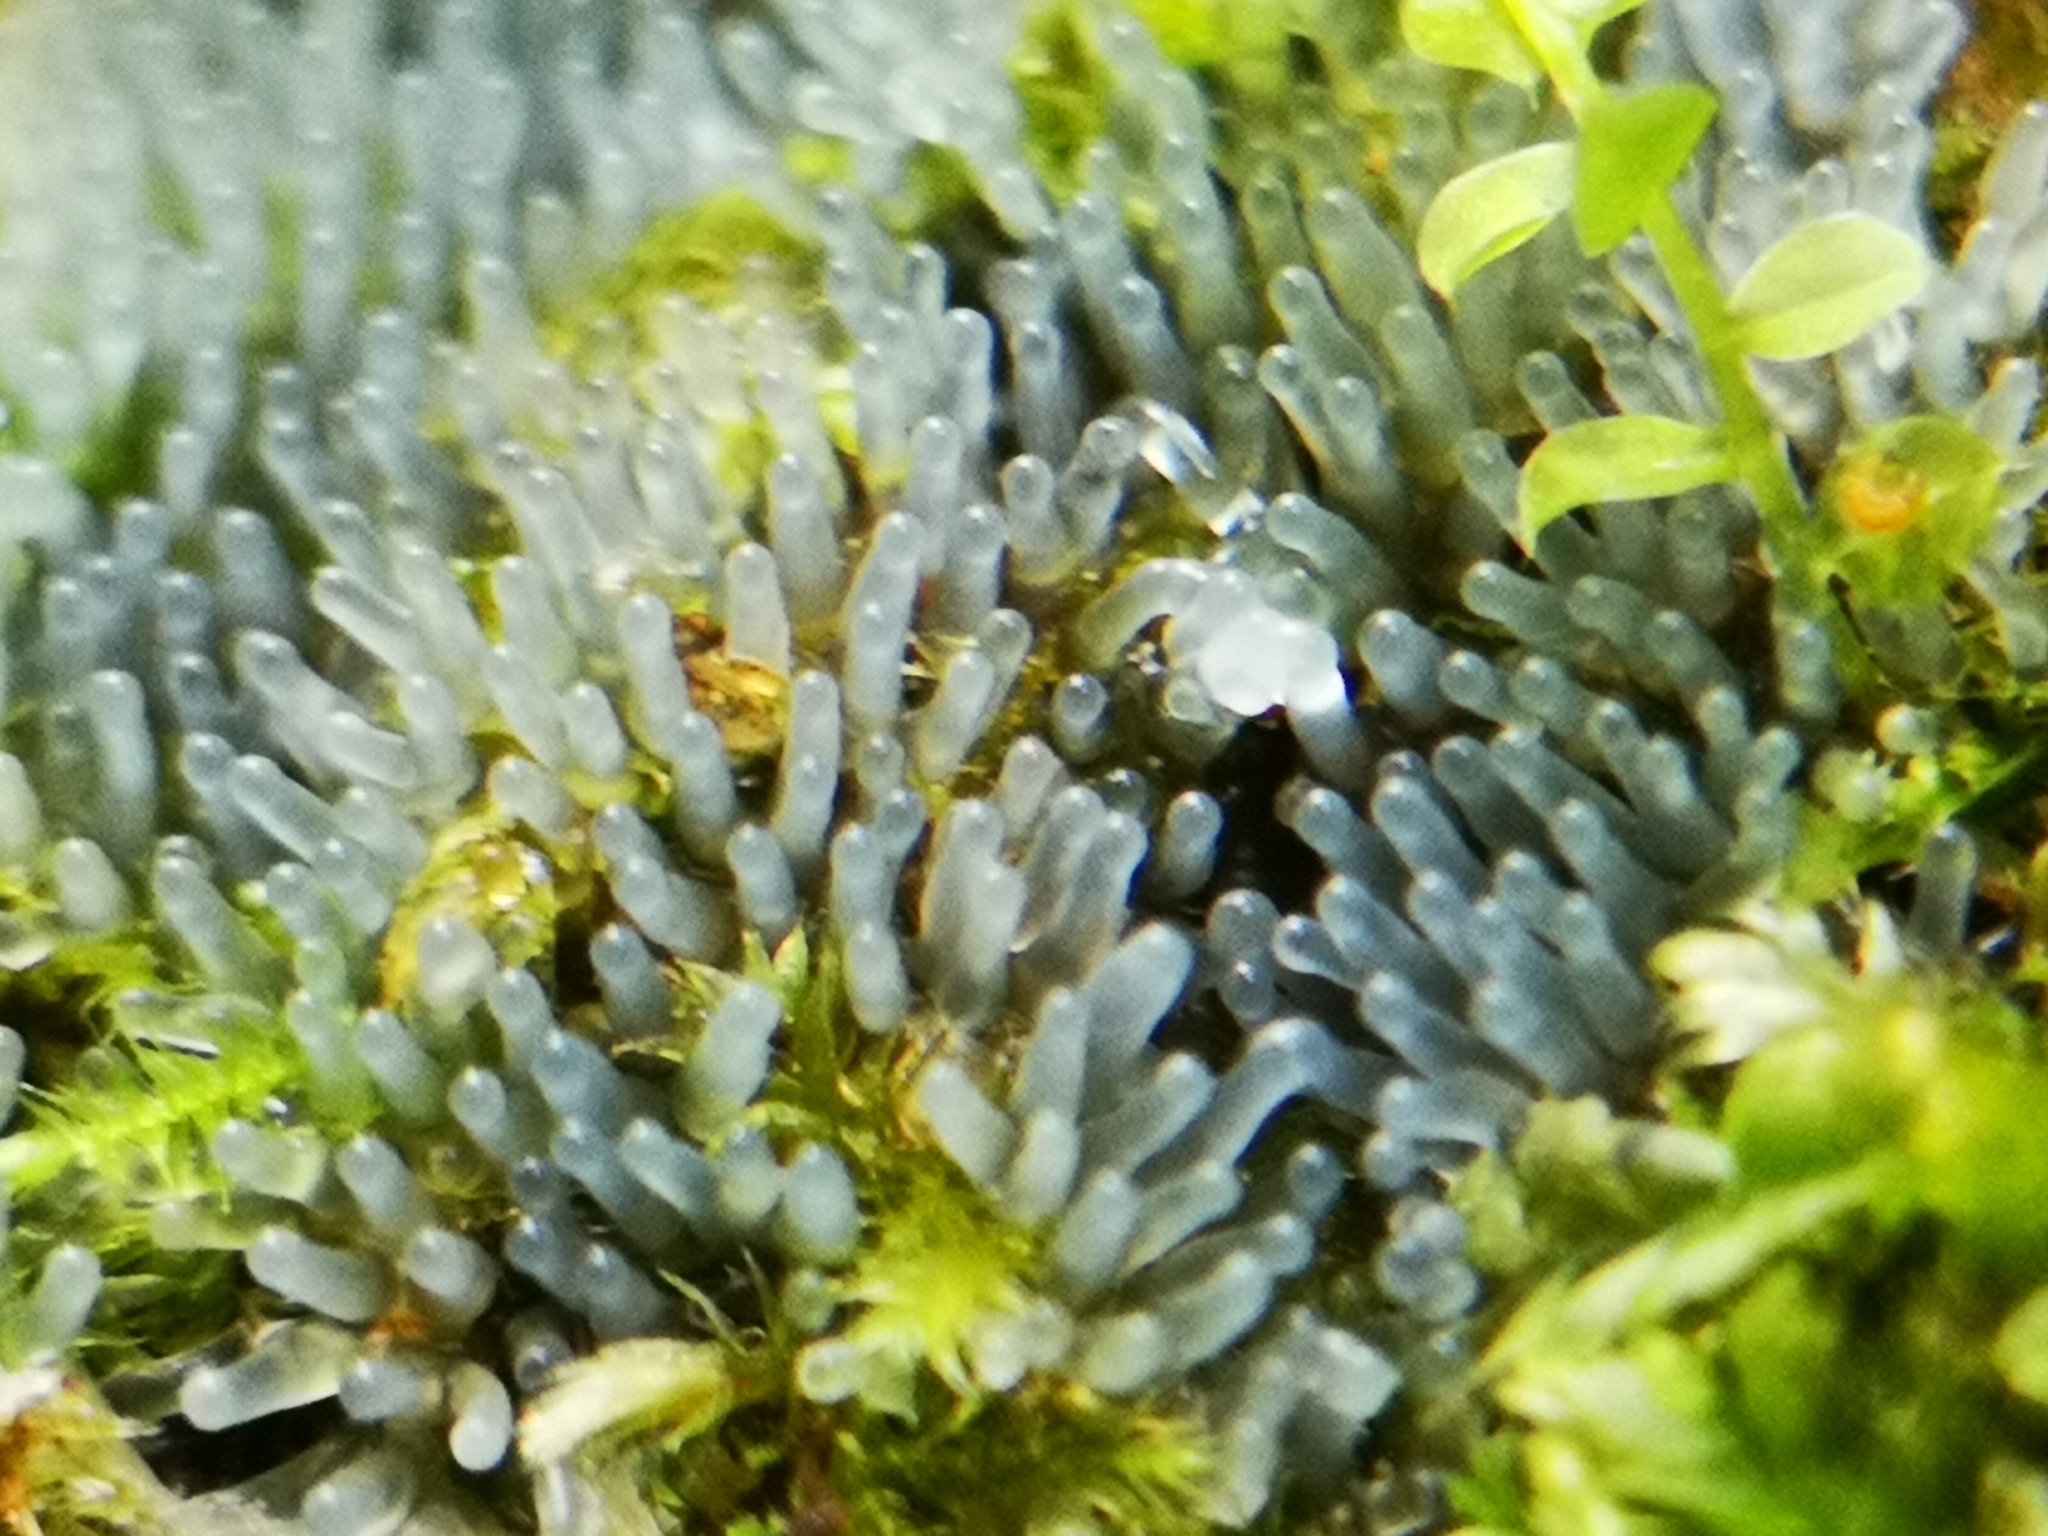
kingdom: Protozoa
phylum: Mycetozoa
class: Protosteliomycetes
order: Ceratiomyxales
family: Ceratiomyxaceae
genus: Ceratiomyxa
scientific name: Ceratiomyxa fruticulosa
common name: Honeycomb coral slime mold
